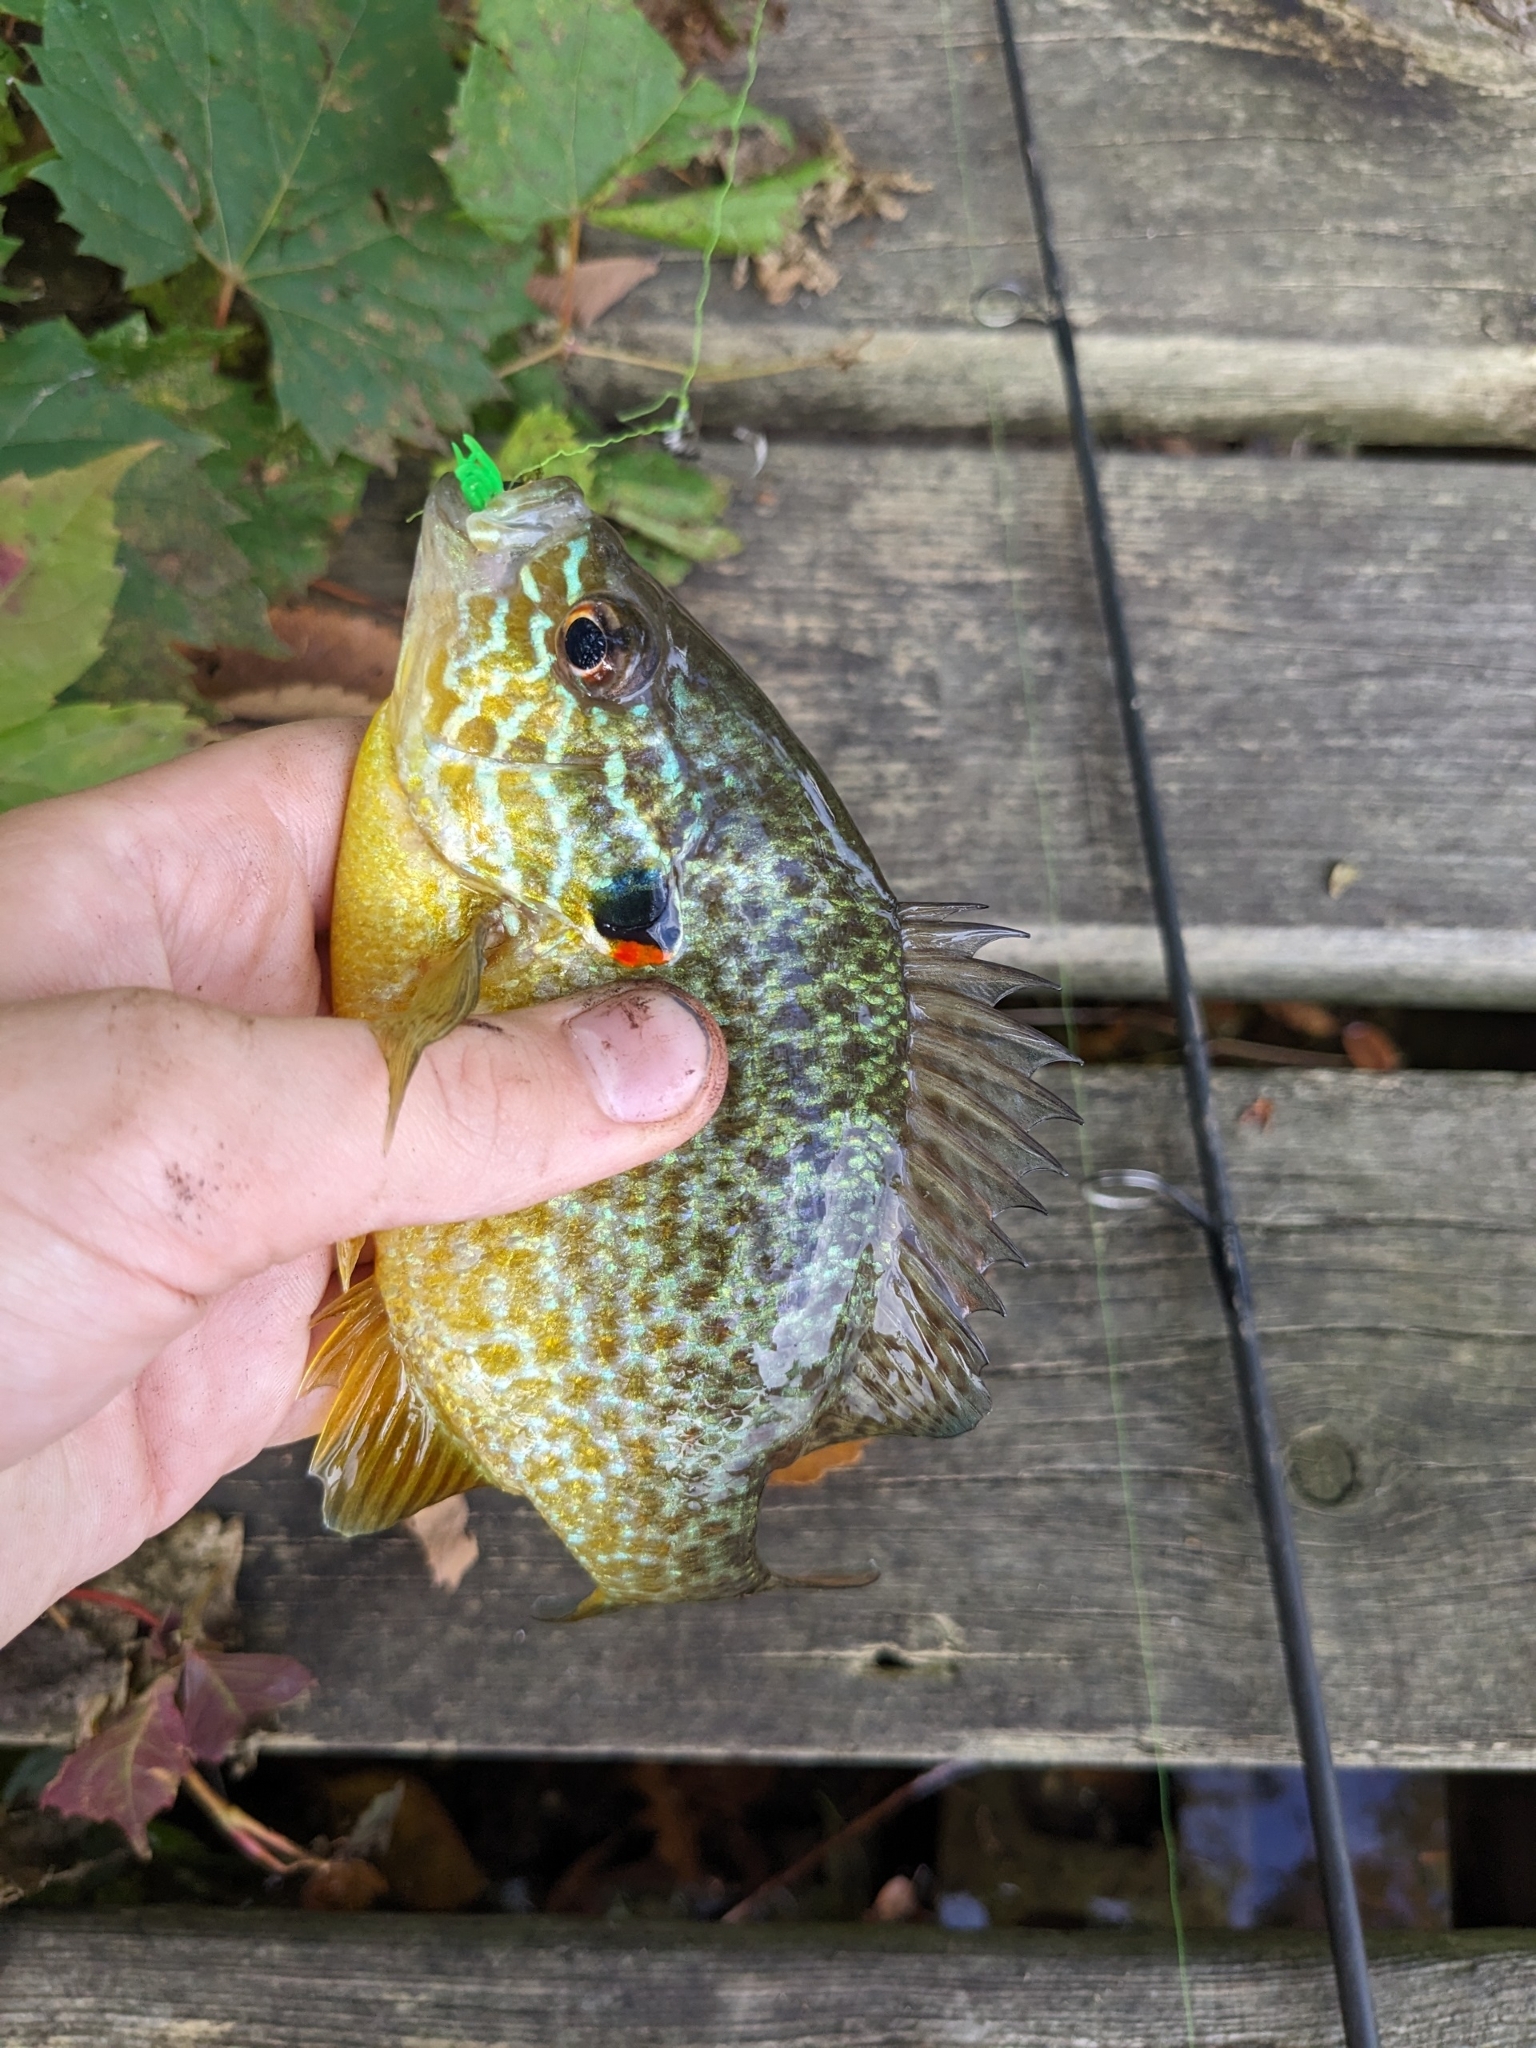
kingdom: Animalia
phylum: Chordata
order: Perciformes
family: Centrarchidae
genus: Lepomis
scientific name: Lepomis gibbosus
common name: Pumpkinseed
